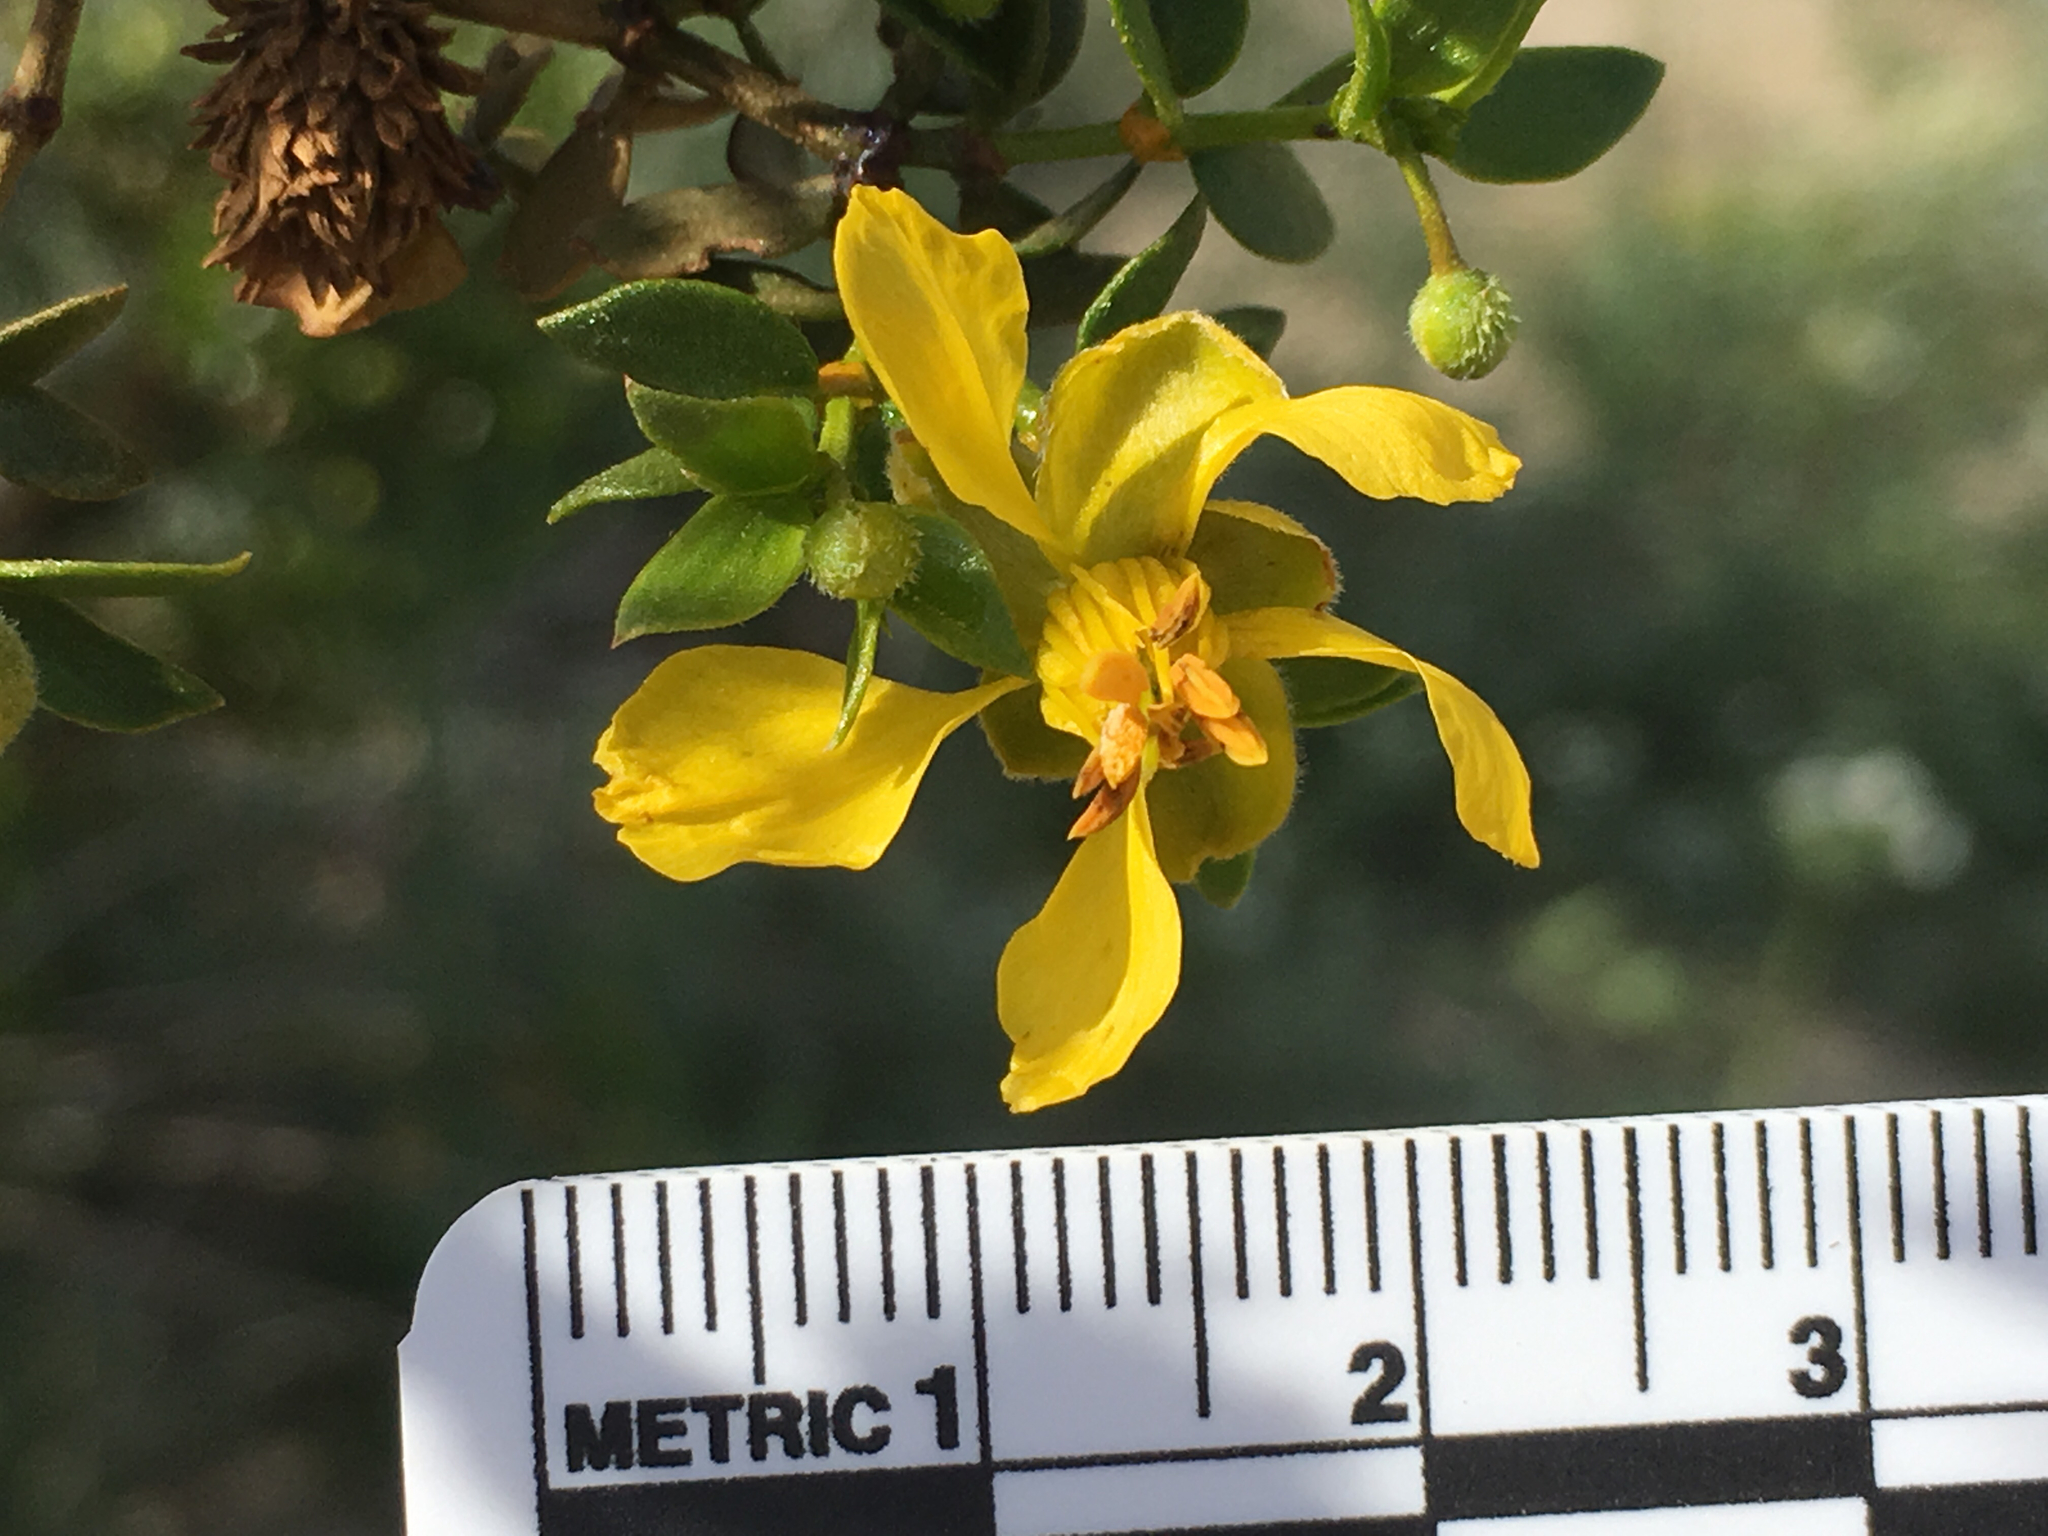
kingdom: Plantae
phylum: Tracheophyta
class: Magnoliopsida
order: Zygophyllales
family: Zygophyllaceae
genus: Larrea
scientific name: Larrea tridentata
